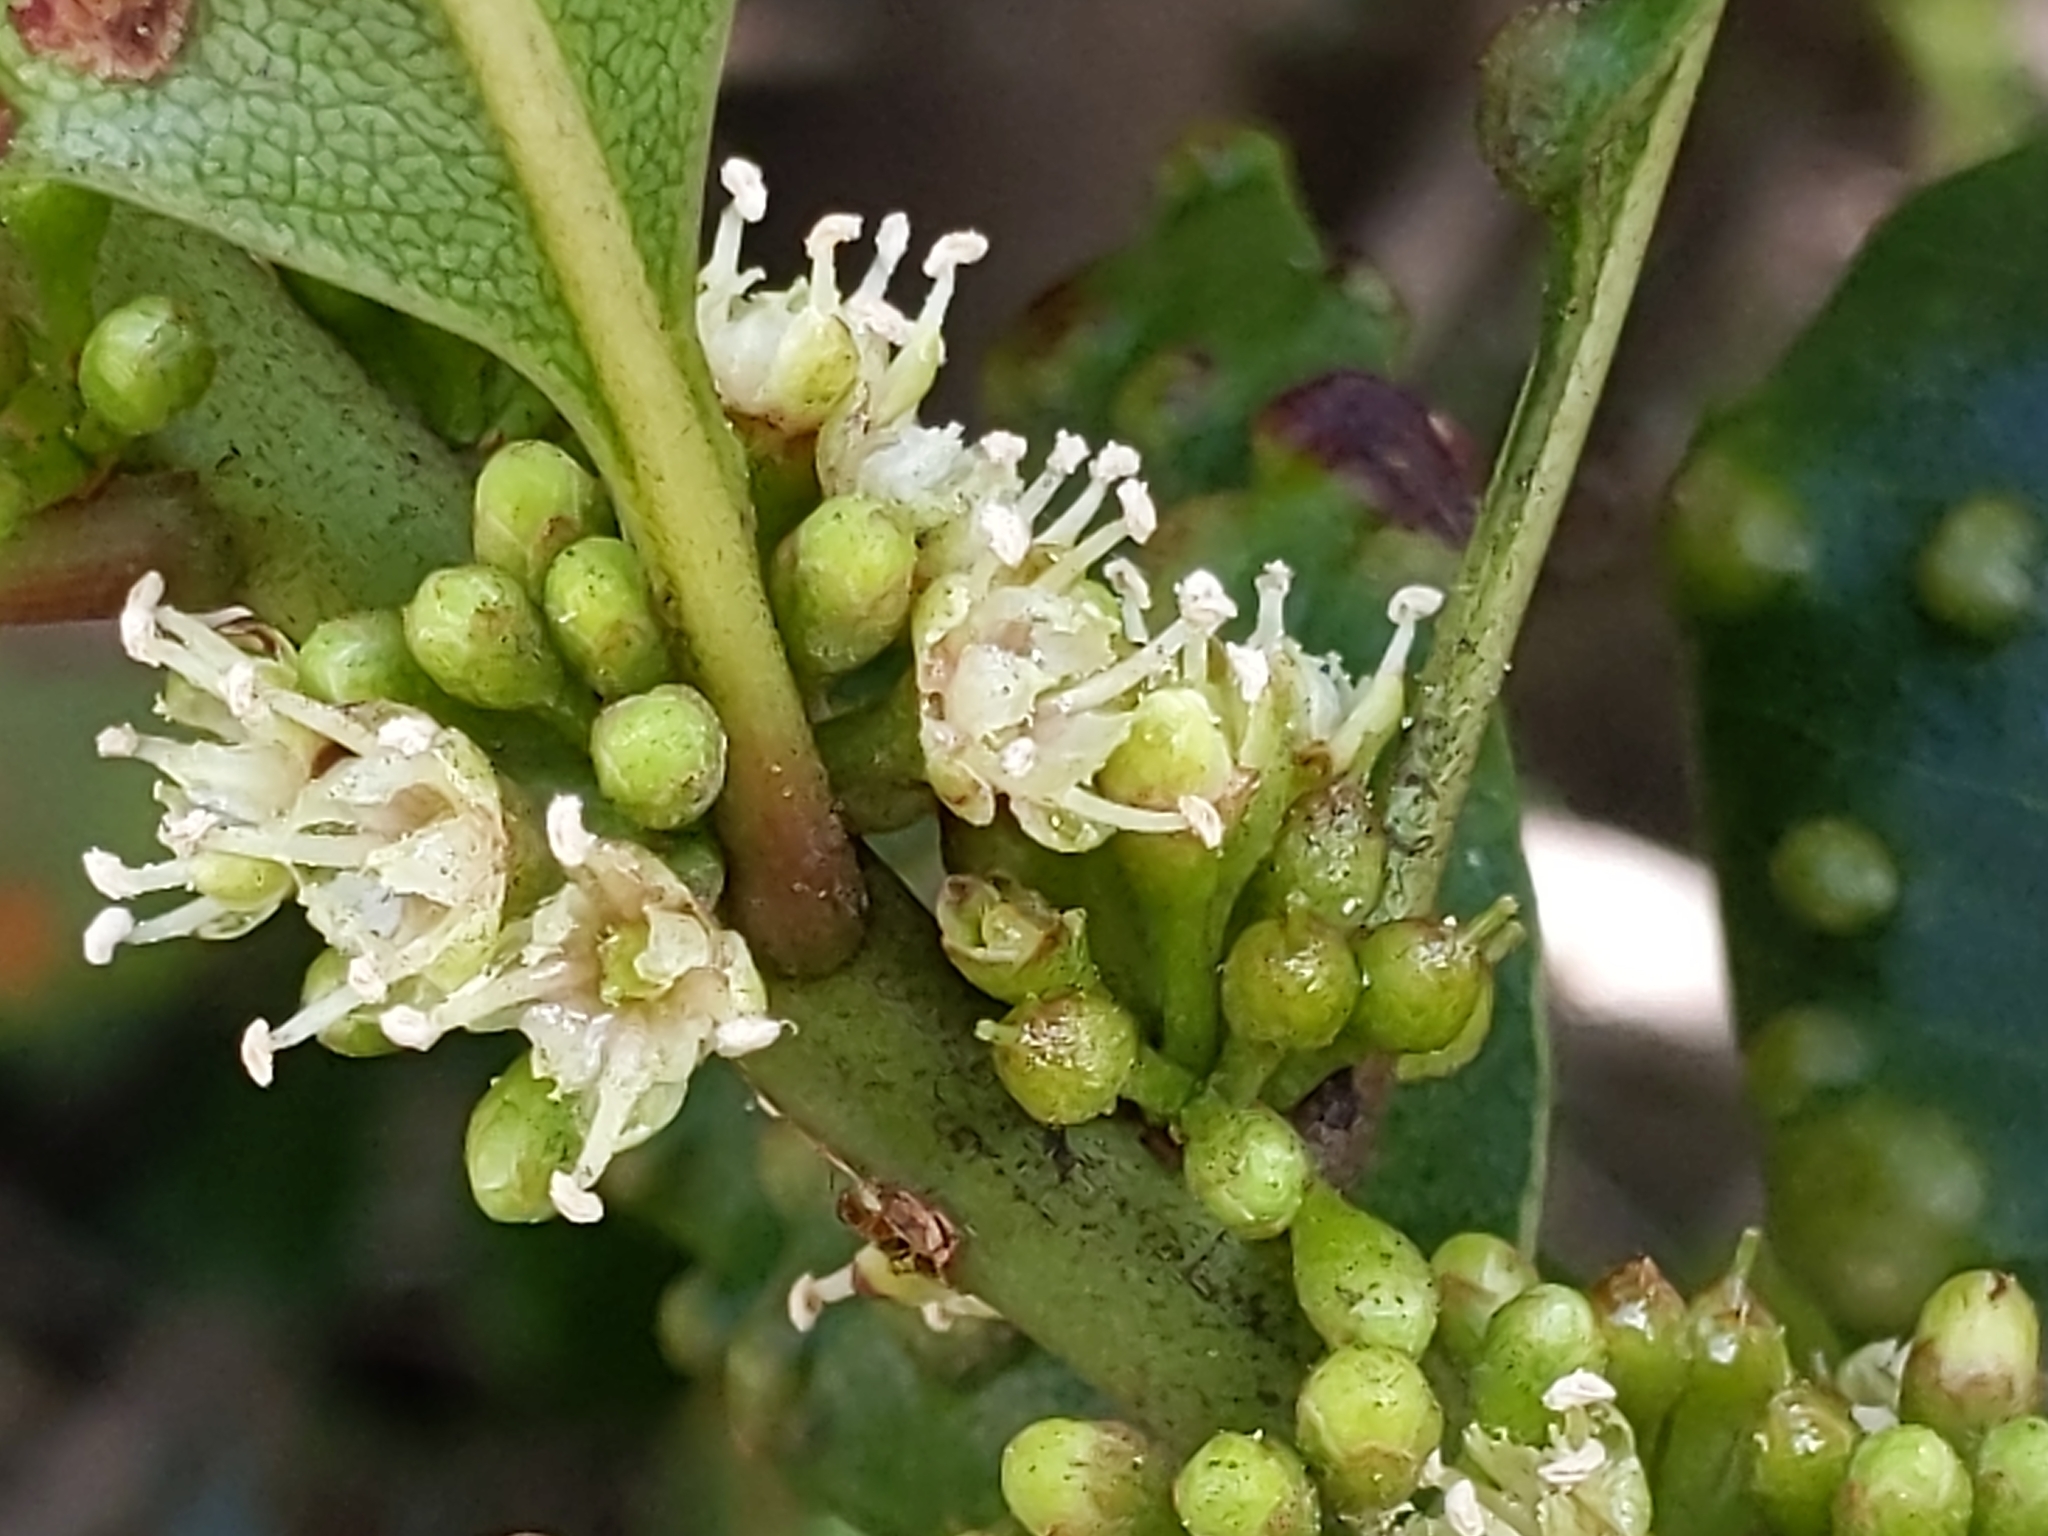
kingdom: Plantae
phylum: Tracheophyta
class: Magnoliopsida
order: Ericales
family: Sapotaceae
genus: Sideroxylon
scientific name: Sideroxylon inerme
